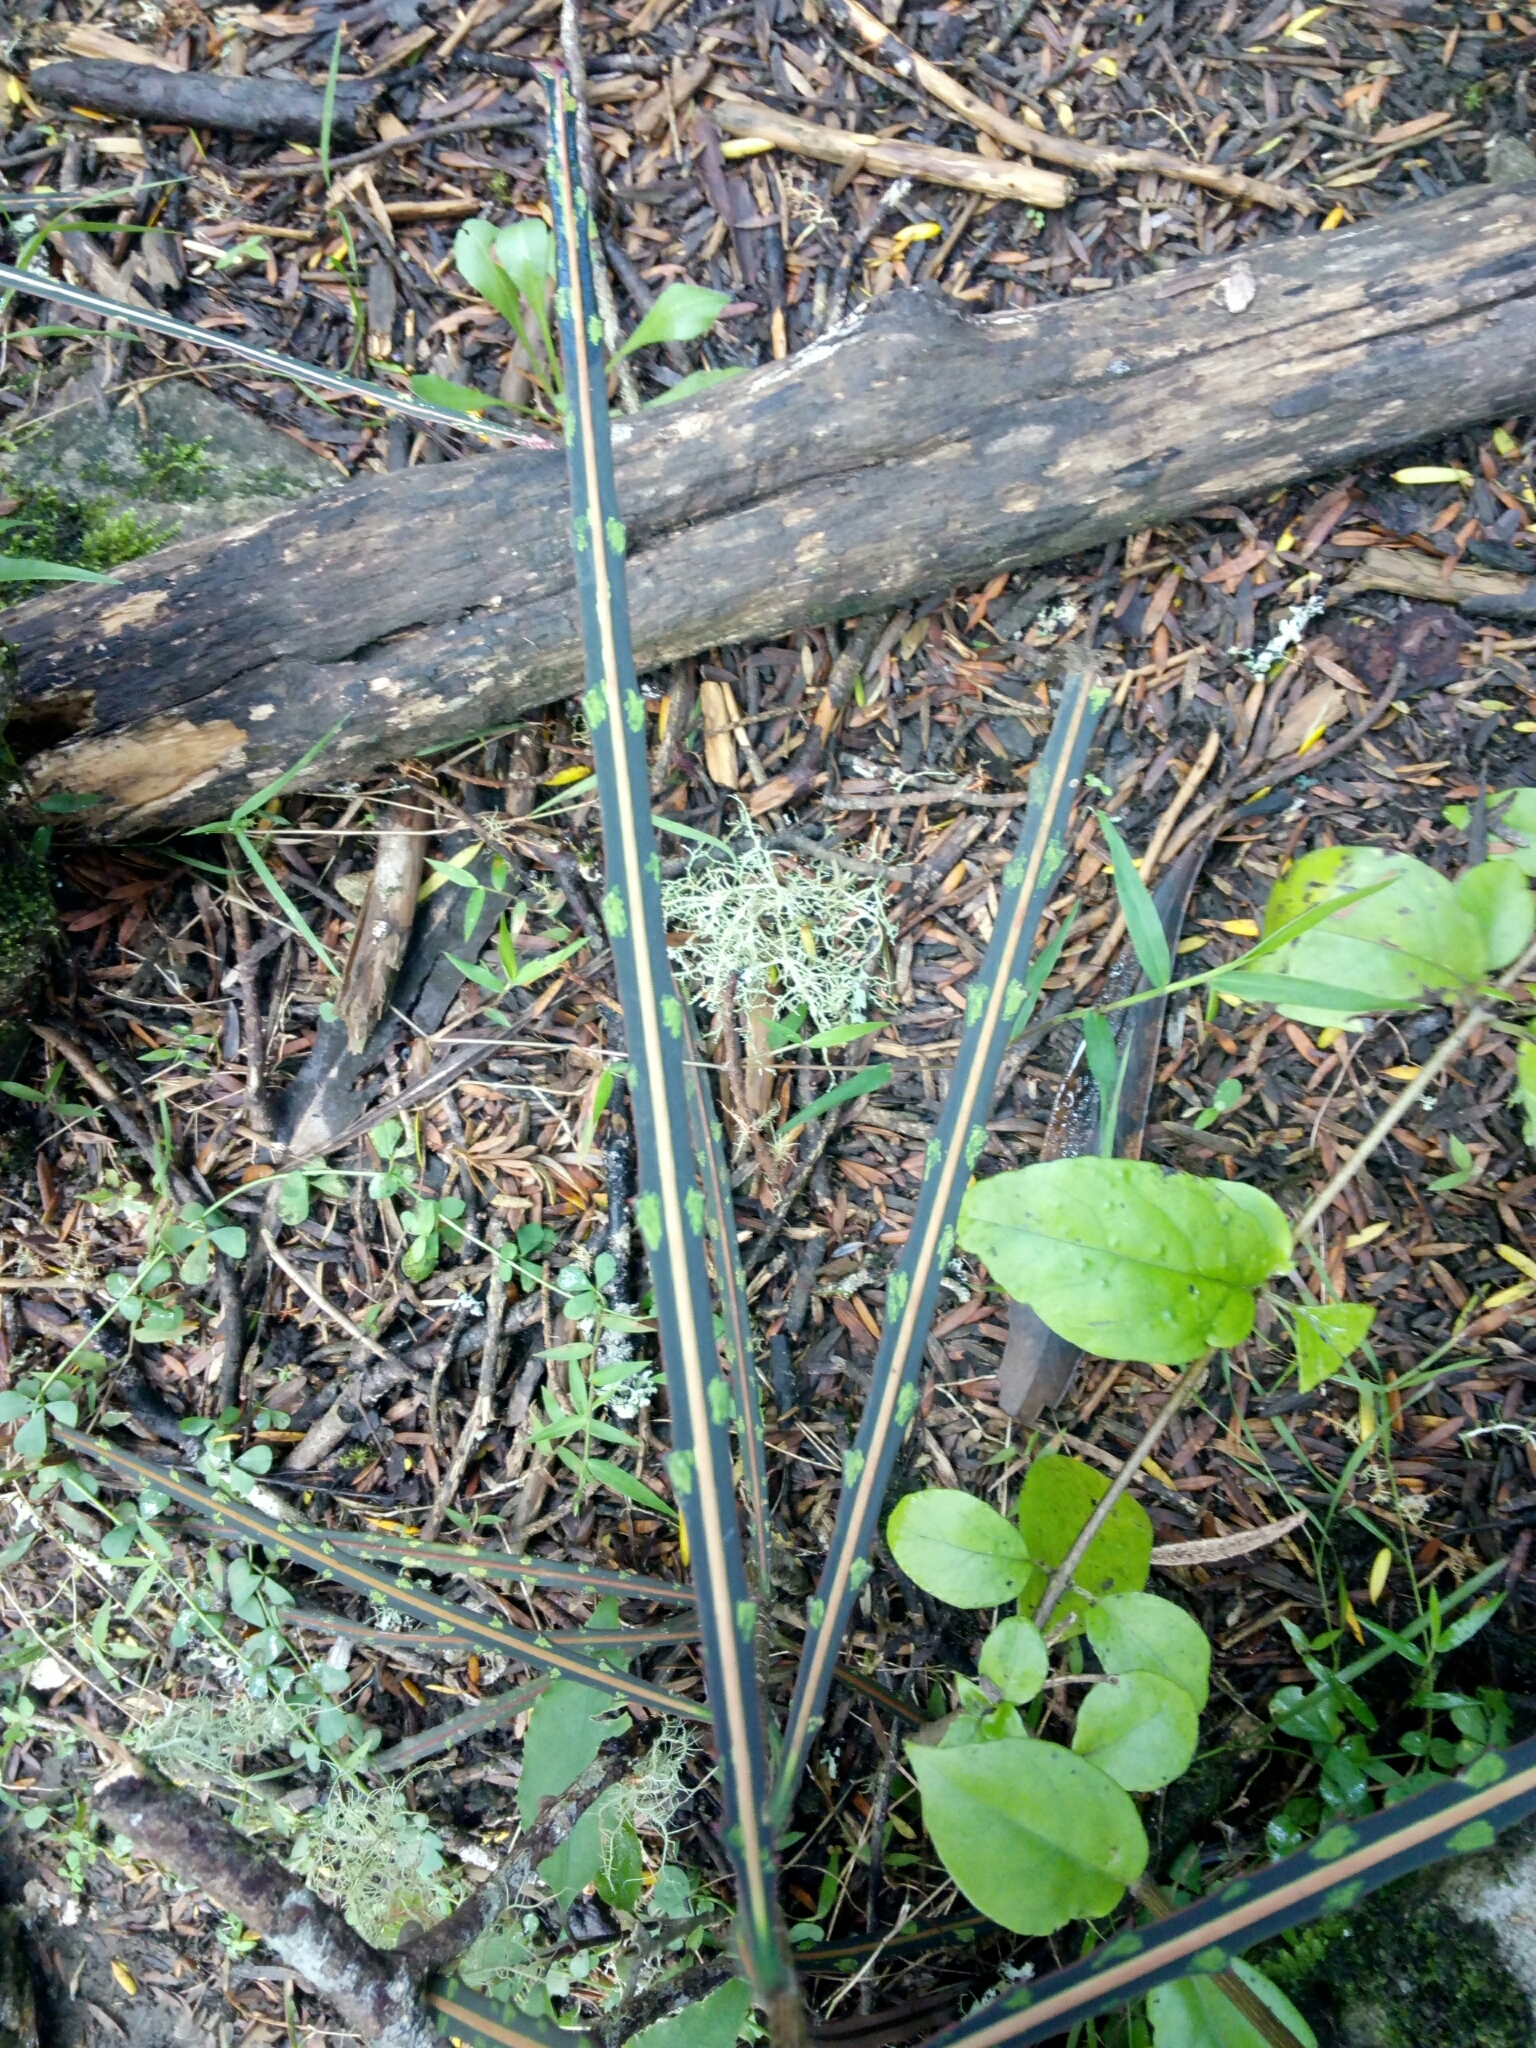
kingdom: Plantae
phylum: Tracheophyta
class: Magnoliopsida
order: Apiales
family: Araliaceae
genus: Pseudopanax
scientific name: Pseudopanax crassifolius
